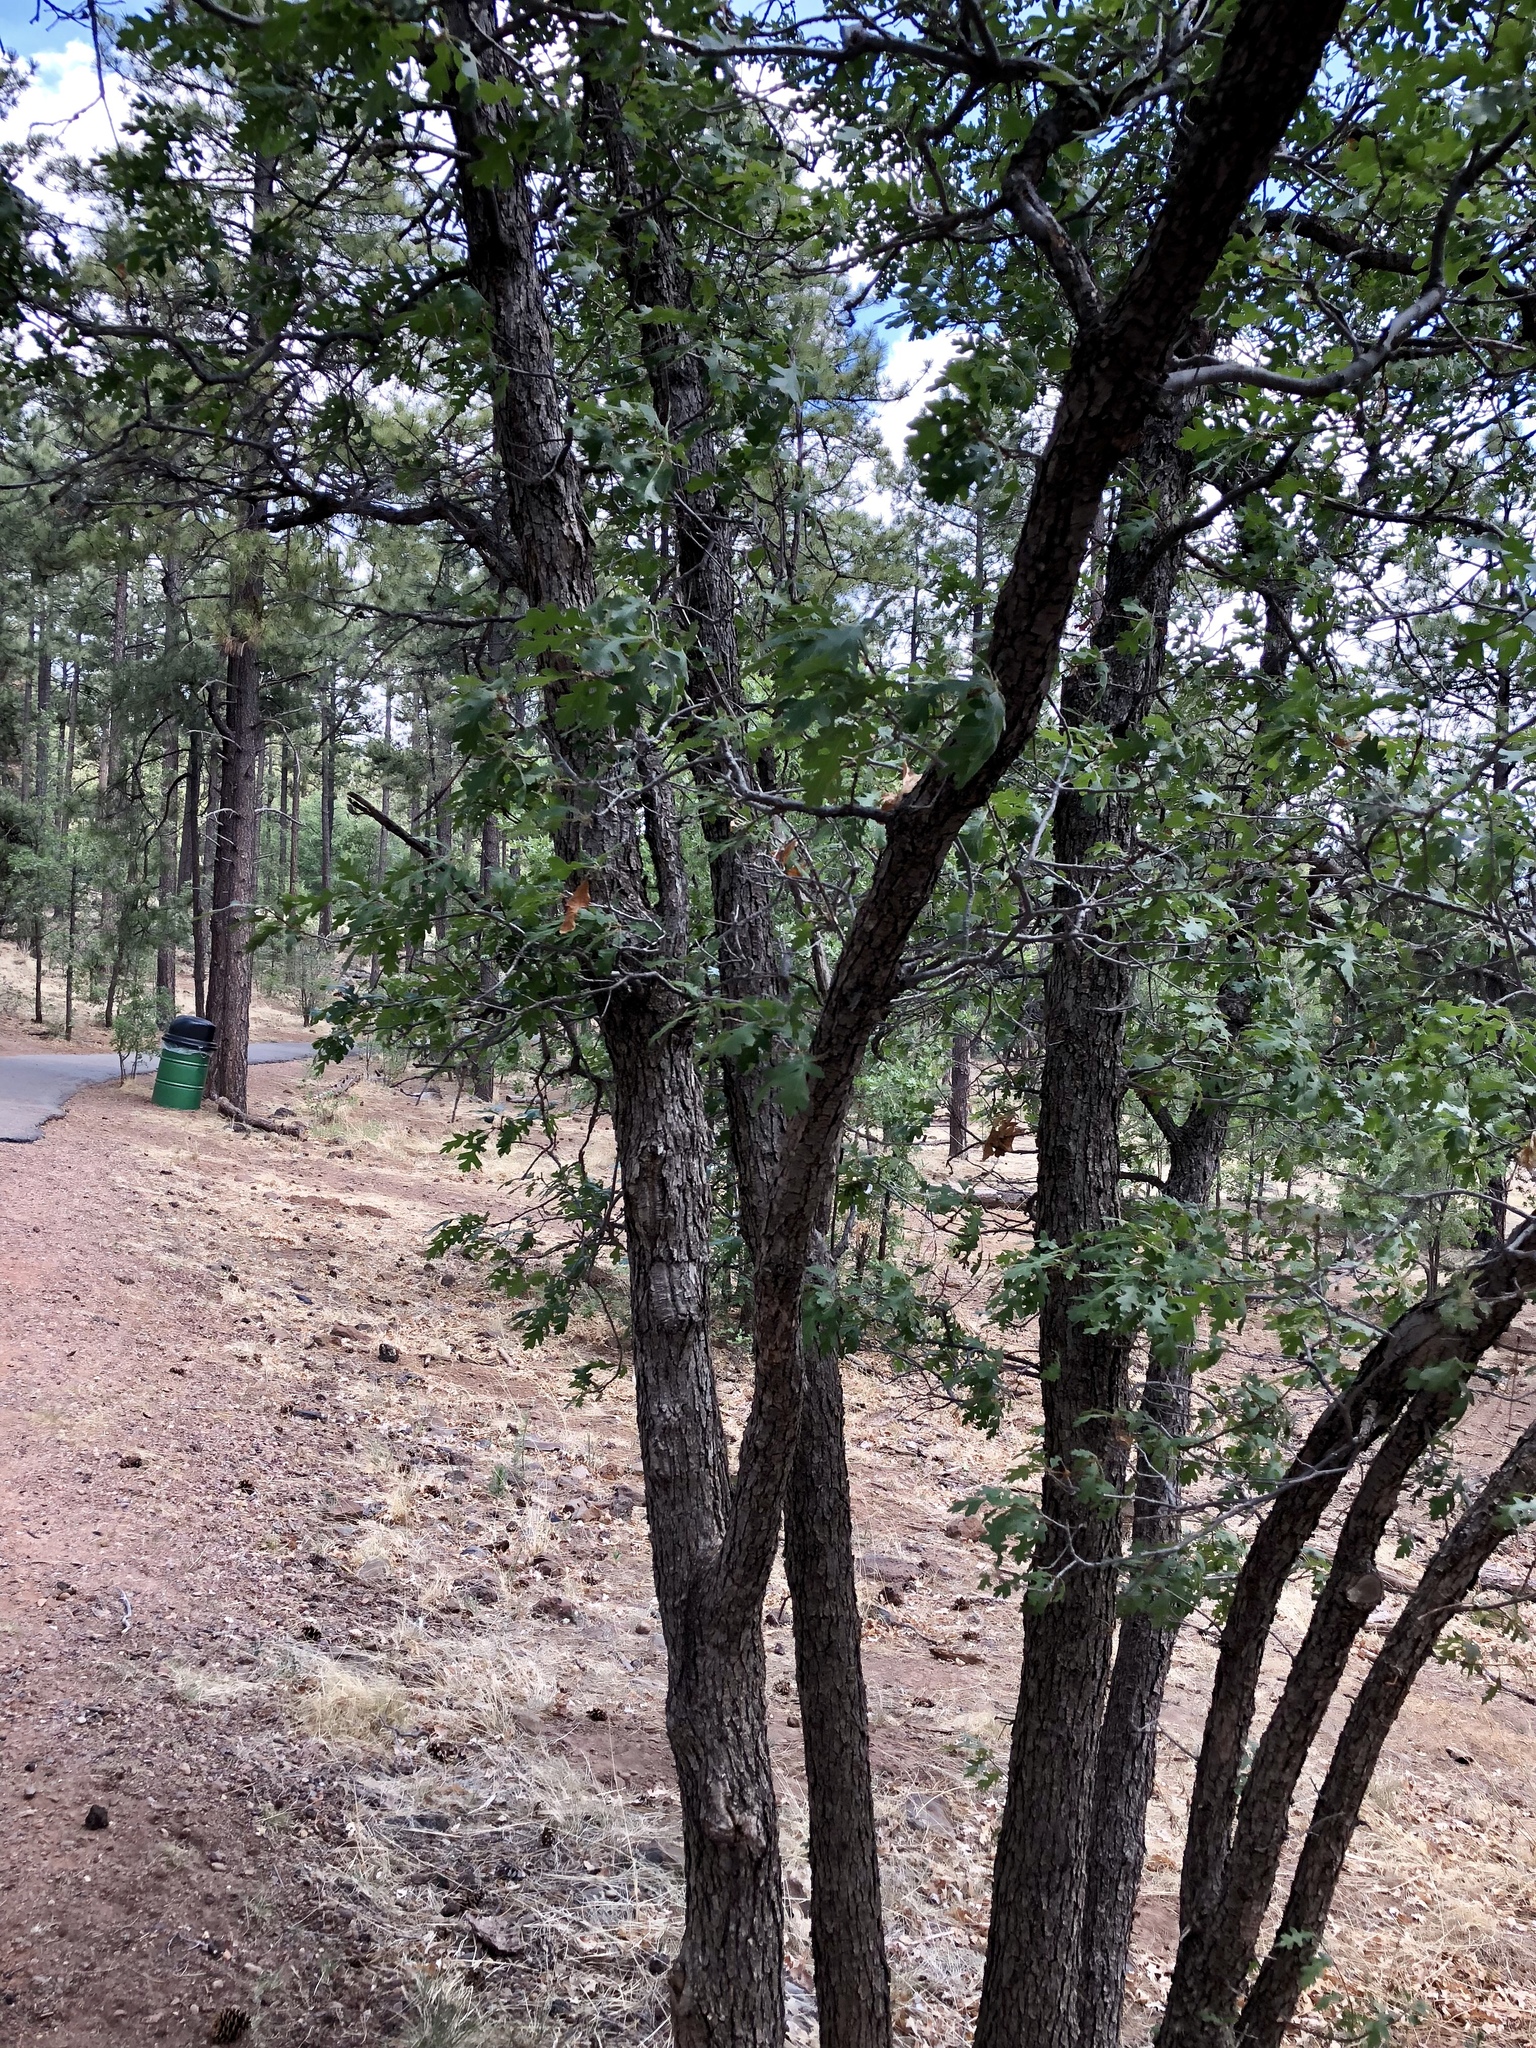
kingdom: Plantae
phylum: Tracheophyta
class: Magnoliopsida
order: Fagales
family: Fagaceae
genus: Quercus
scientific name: Quercus gambelii
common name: Gambel oak
